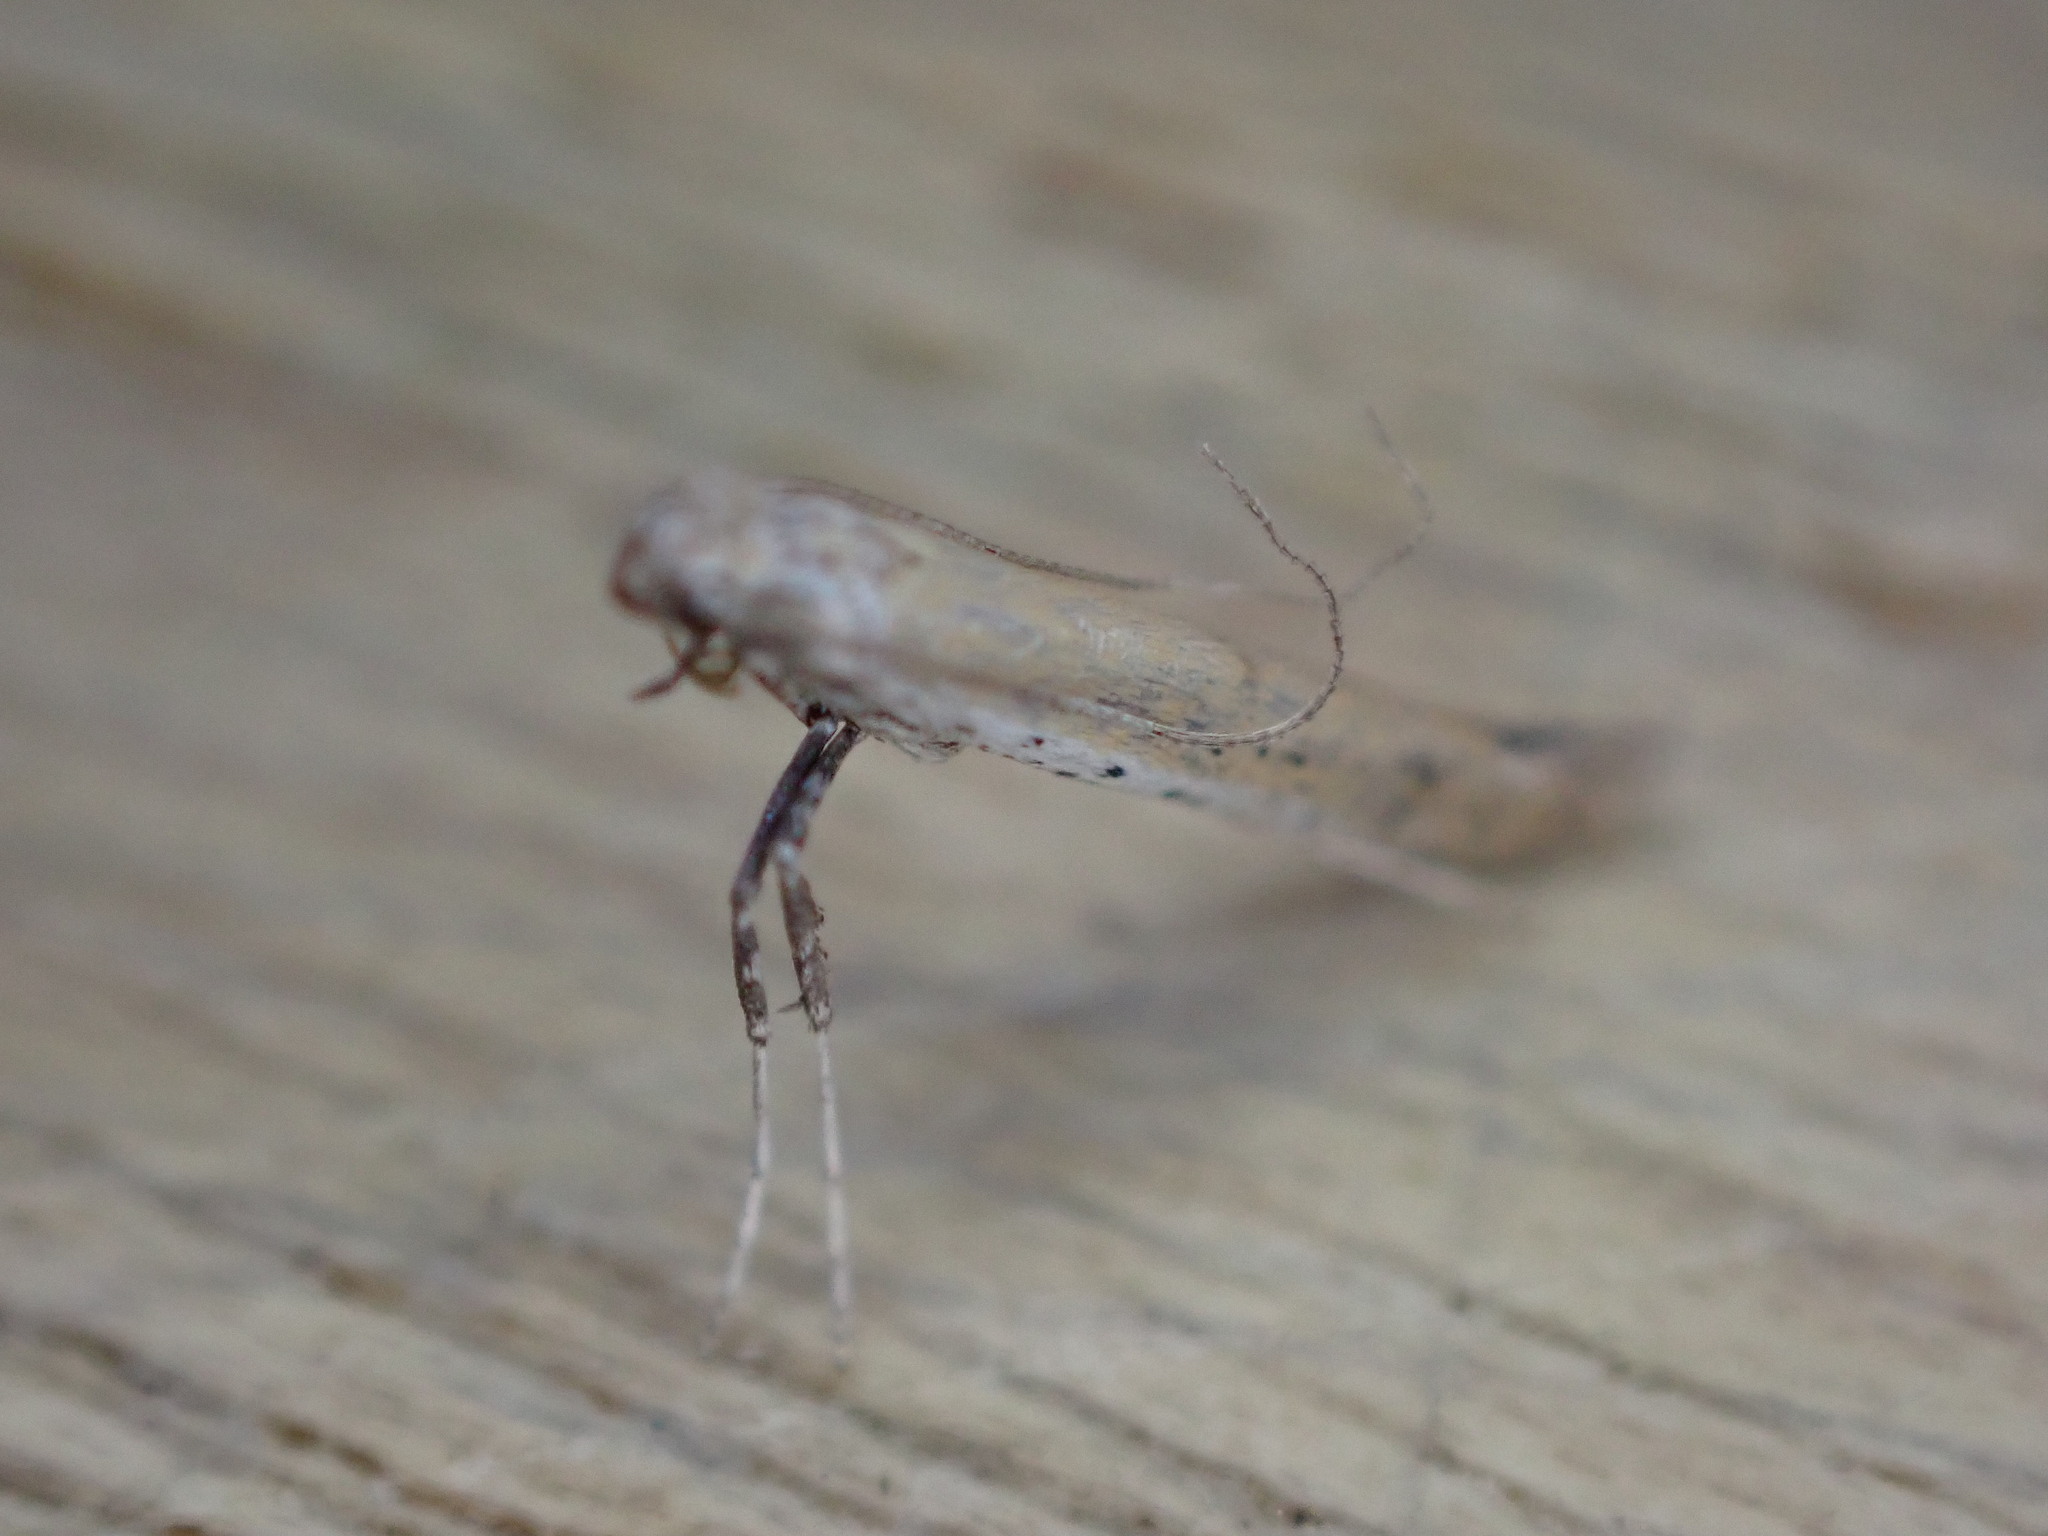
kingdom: Animalia
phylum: Arthropoda
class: Insecta
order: Lepidoptera
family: Gracillariidae
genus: Aspilapteryx
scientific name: Aspilapteryx tringipennella
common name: Ribwort slender
